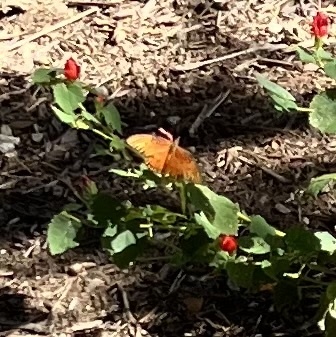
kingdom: Animalia
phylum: Arthropoda
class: Insecta
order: Lepidoptera
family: Nymphalidae
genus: Dione
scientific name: Dione vanillae
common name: Gulf fritillary
